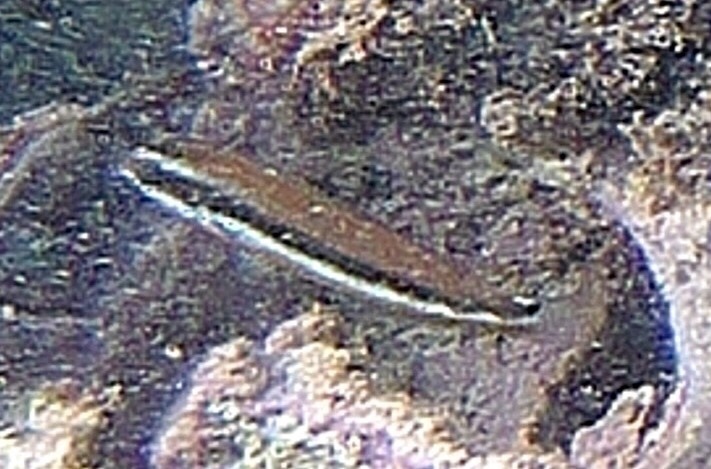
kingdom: Animalia
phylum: Chordata
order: Perciformes
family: Labridae
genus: Thalassoma
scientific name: Thalassoma duperrey
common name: Saddle wrasse
